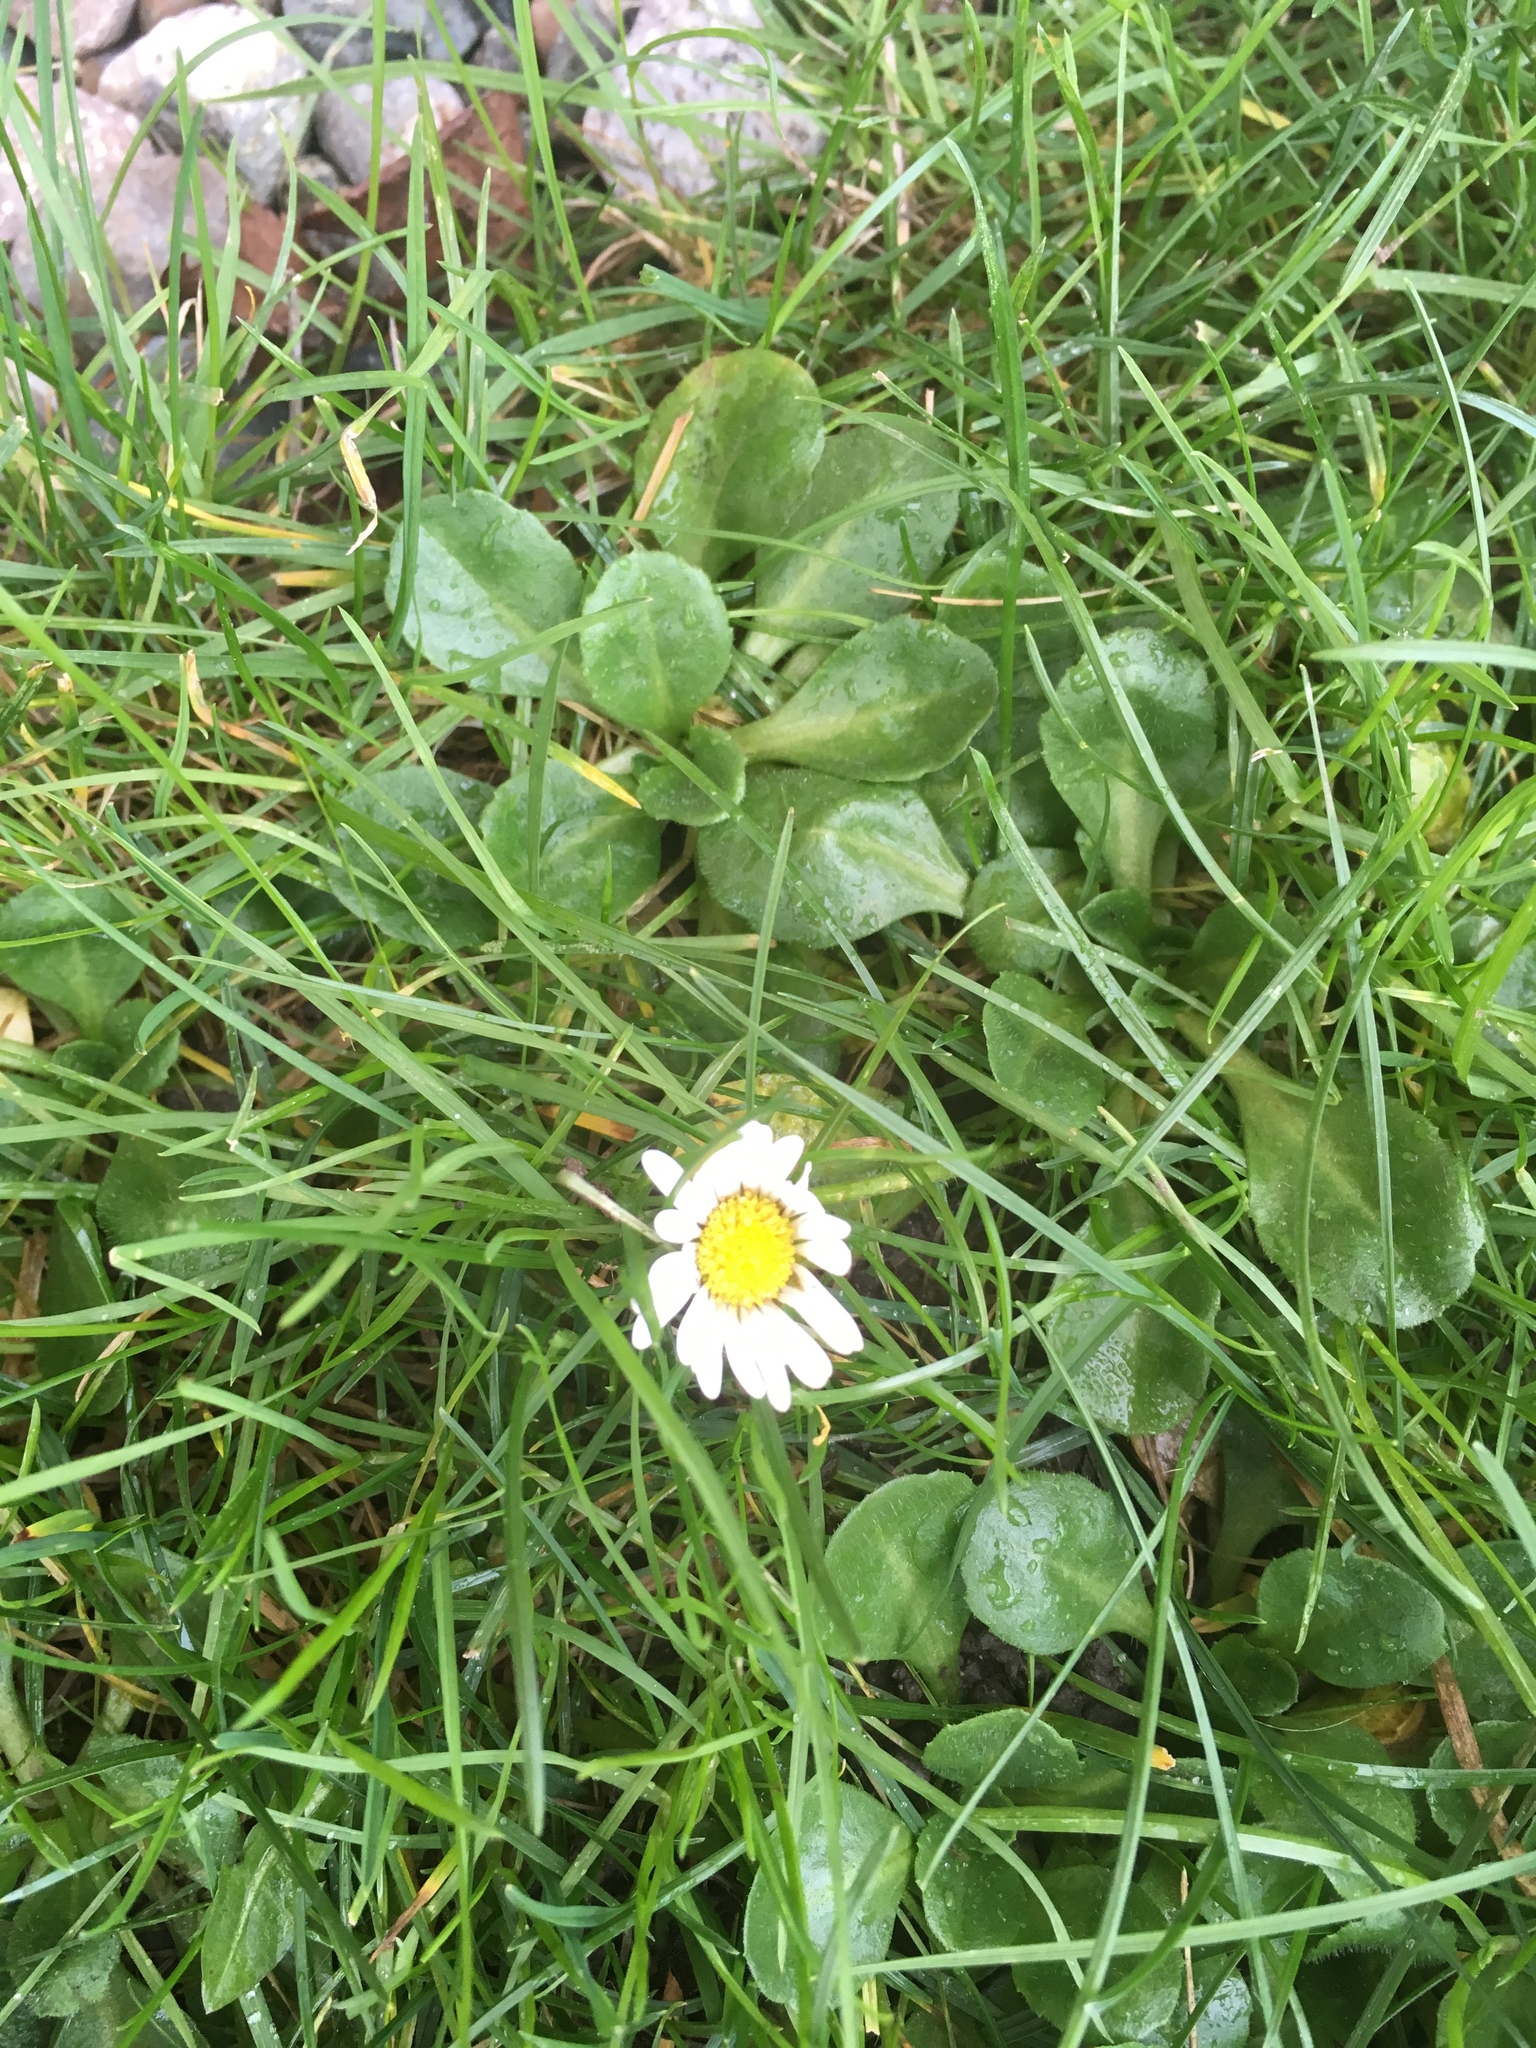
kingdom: Plantae
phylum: Tracheophyta
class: Magnoliopsida
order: Asterales
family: Asteraceae
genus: Bellis
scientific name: Bellis perennis
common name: Lawndaisy
